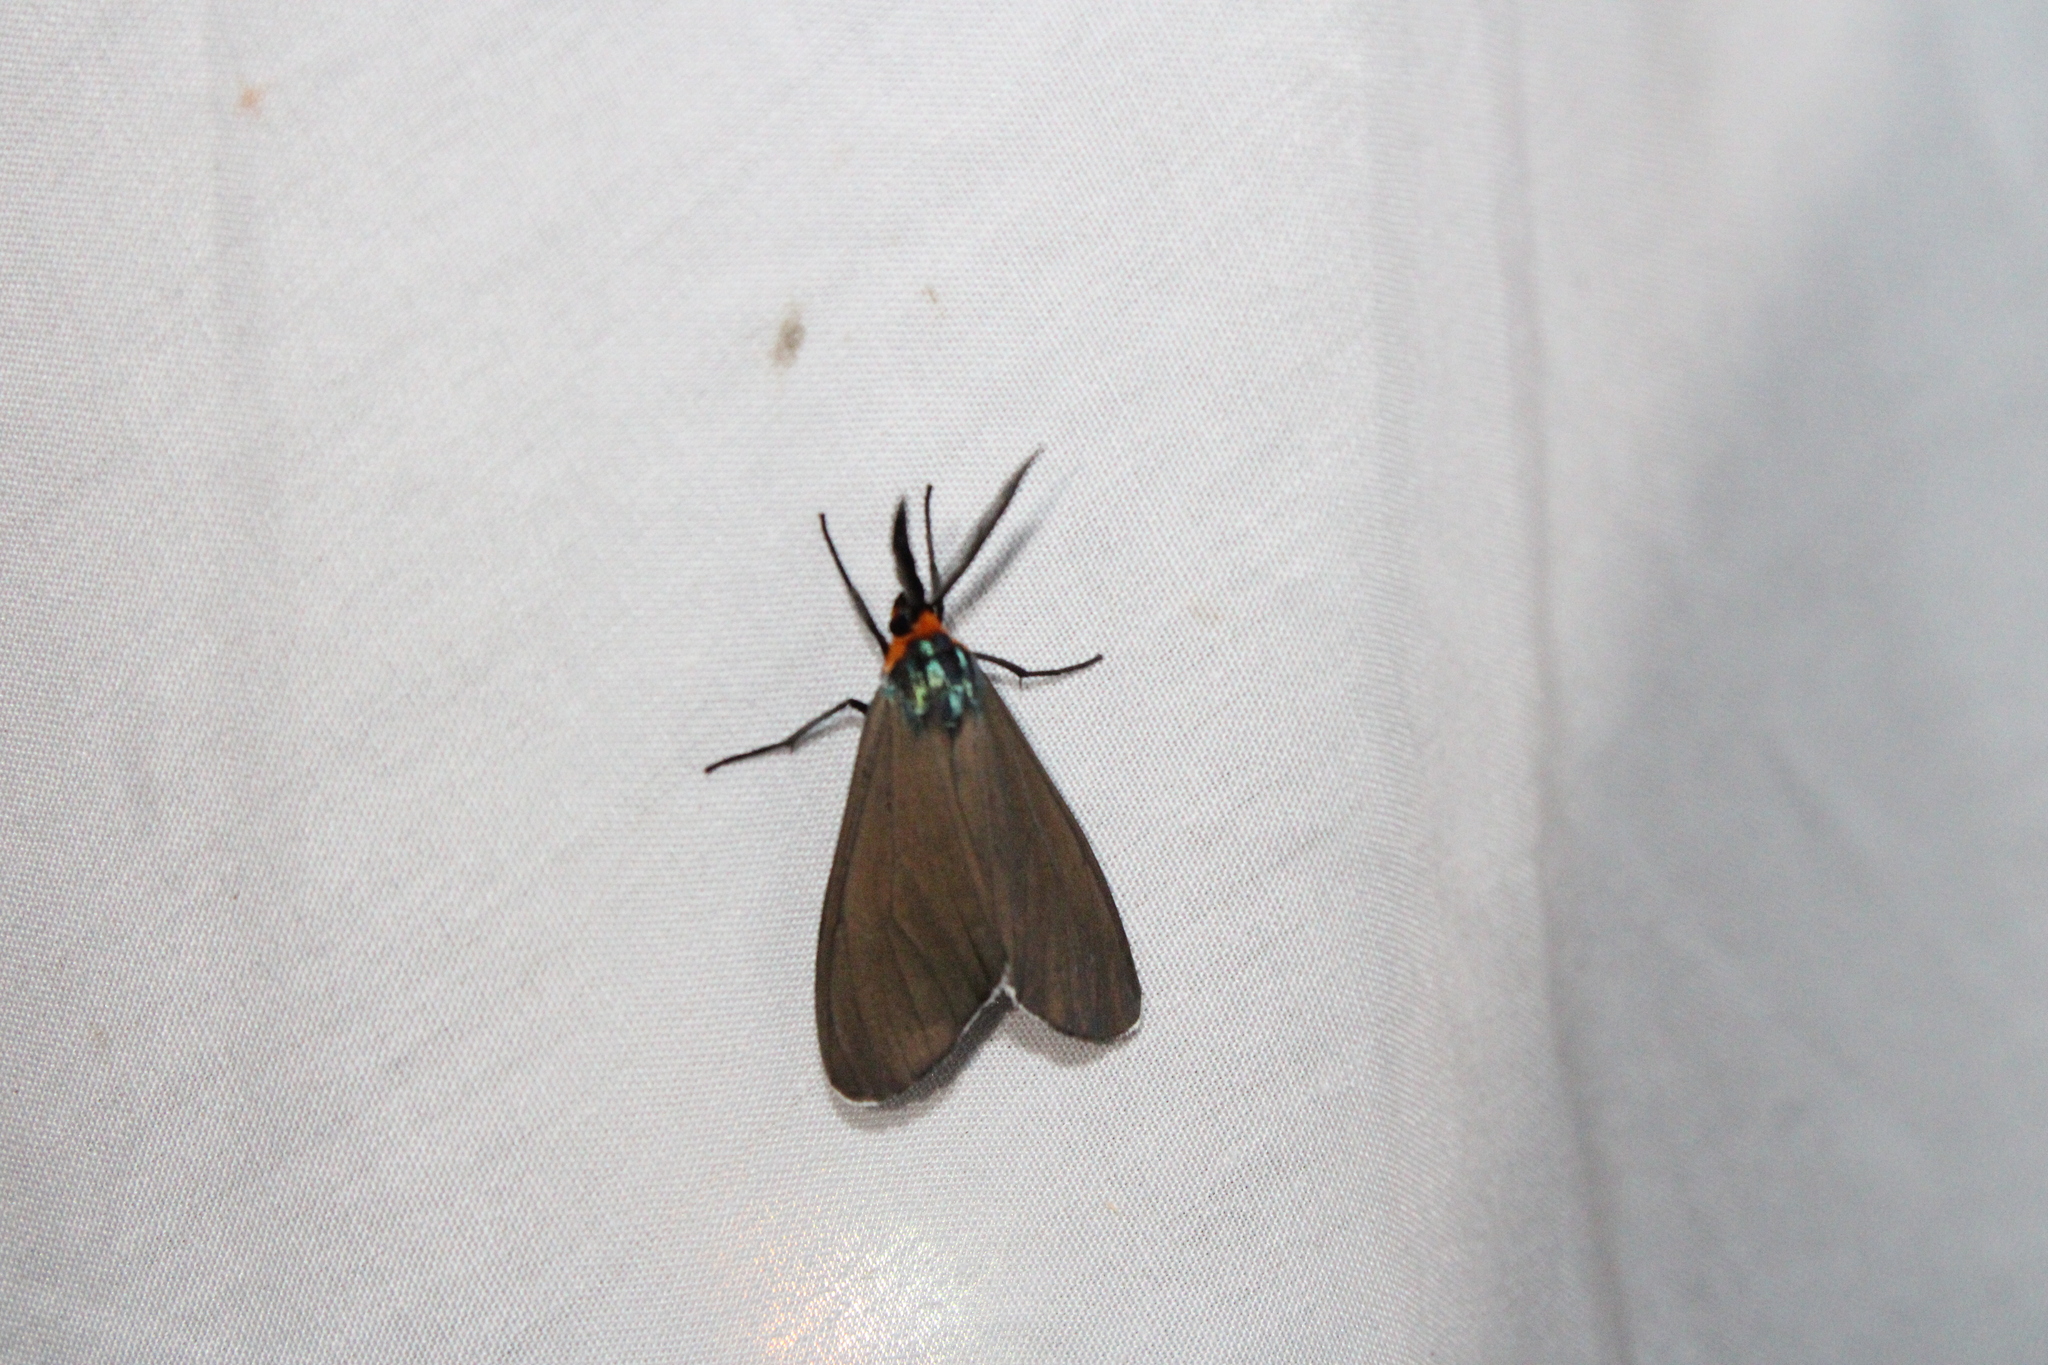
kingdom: Animalia
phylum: Arthropoda
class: Insecta
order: Lepidoptera
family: Erebidae
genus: Ctenucha
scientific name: Ctenucha virginica
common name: Virginia ctenucha moth
